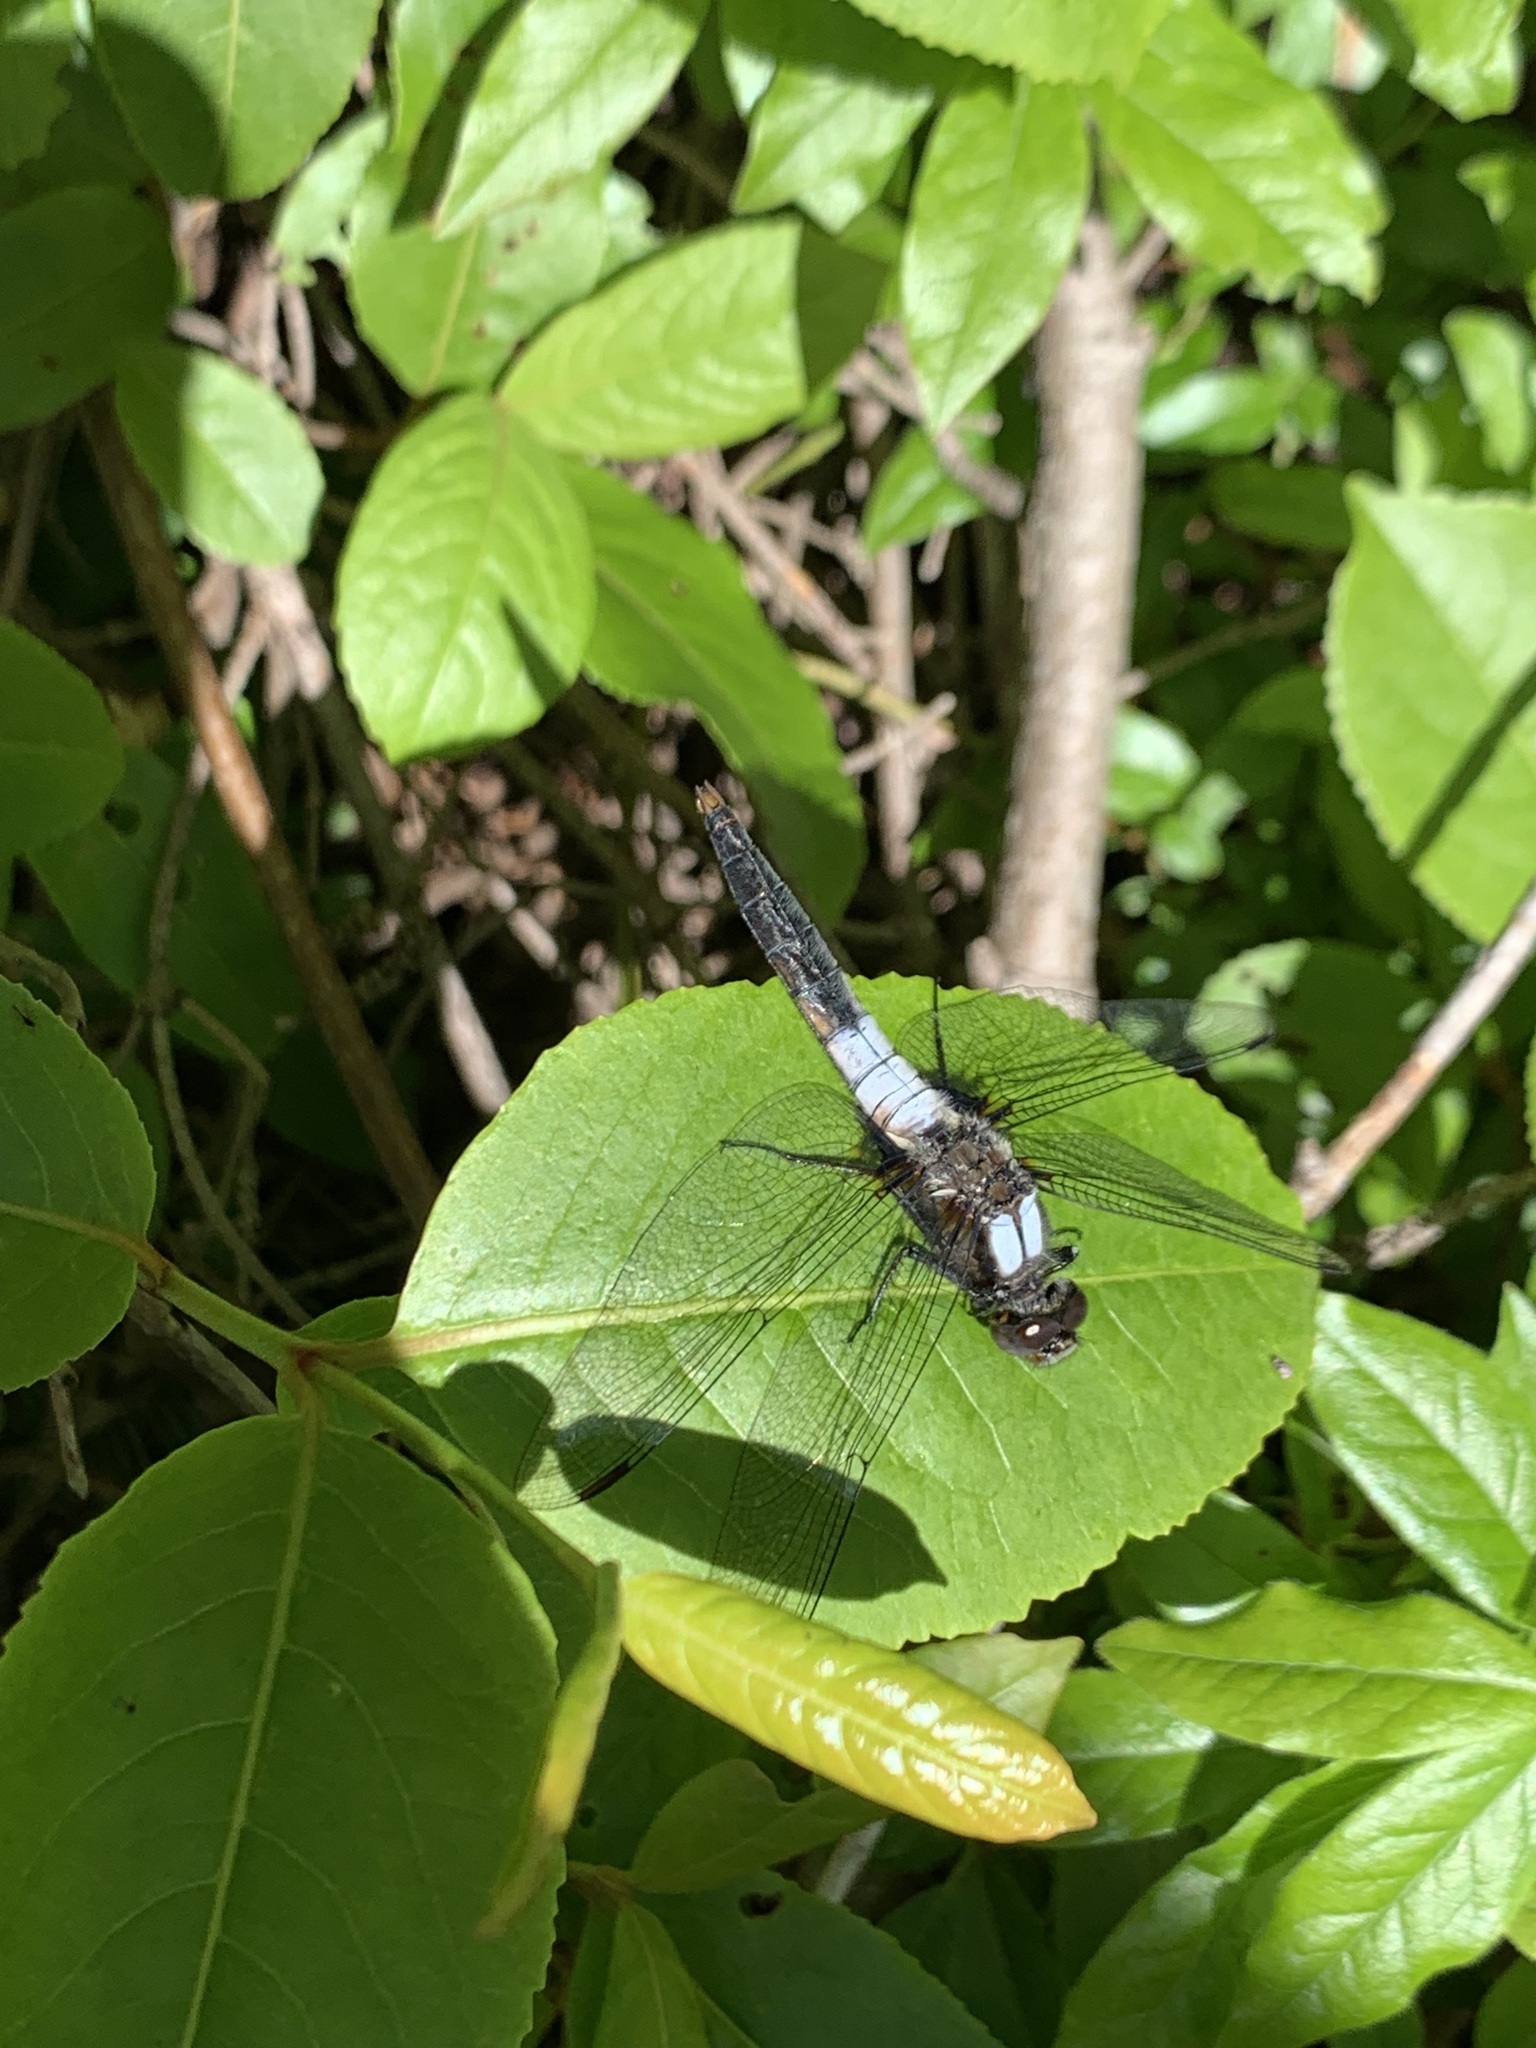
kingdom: Animalia
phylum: Arthropoda
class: Insecta
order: Odonata
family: Libellulidae
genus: Ladona
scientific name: Ladona julia
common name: Chalk-fronted corporal
